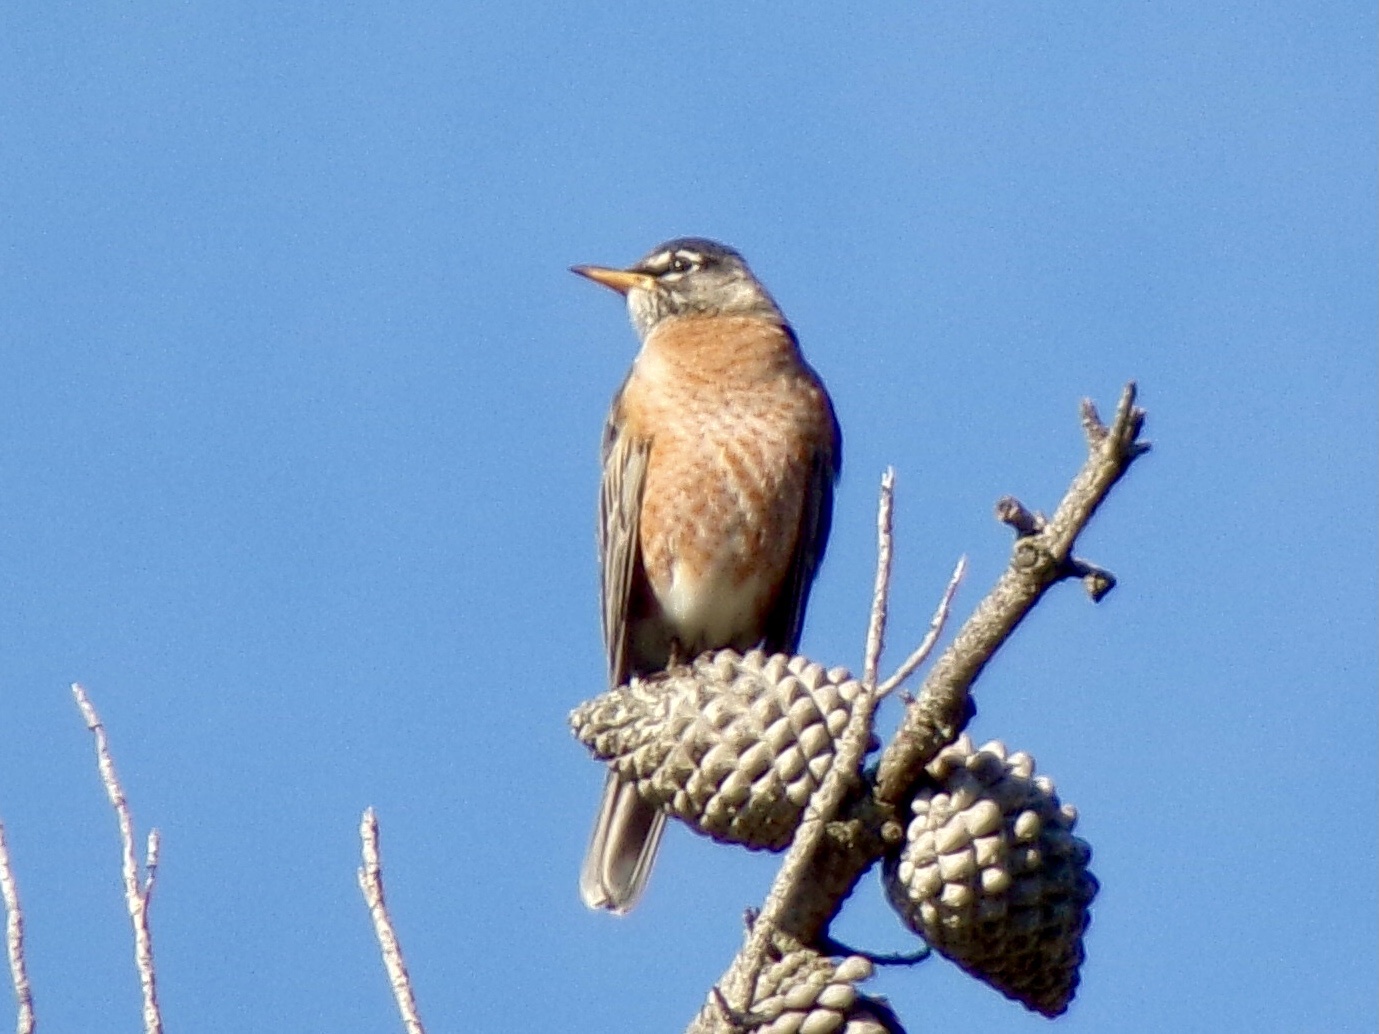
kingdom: Animalia
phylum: Chordata
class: Aves
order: Passeriformes
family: Turdidae
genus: Turdus
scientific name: Turdus migratorius
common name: American robin
